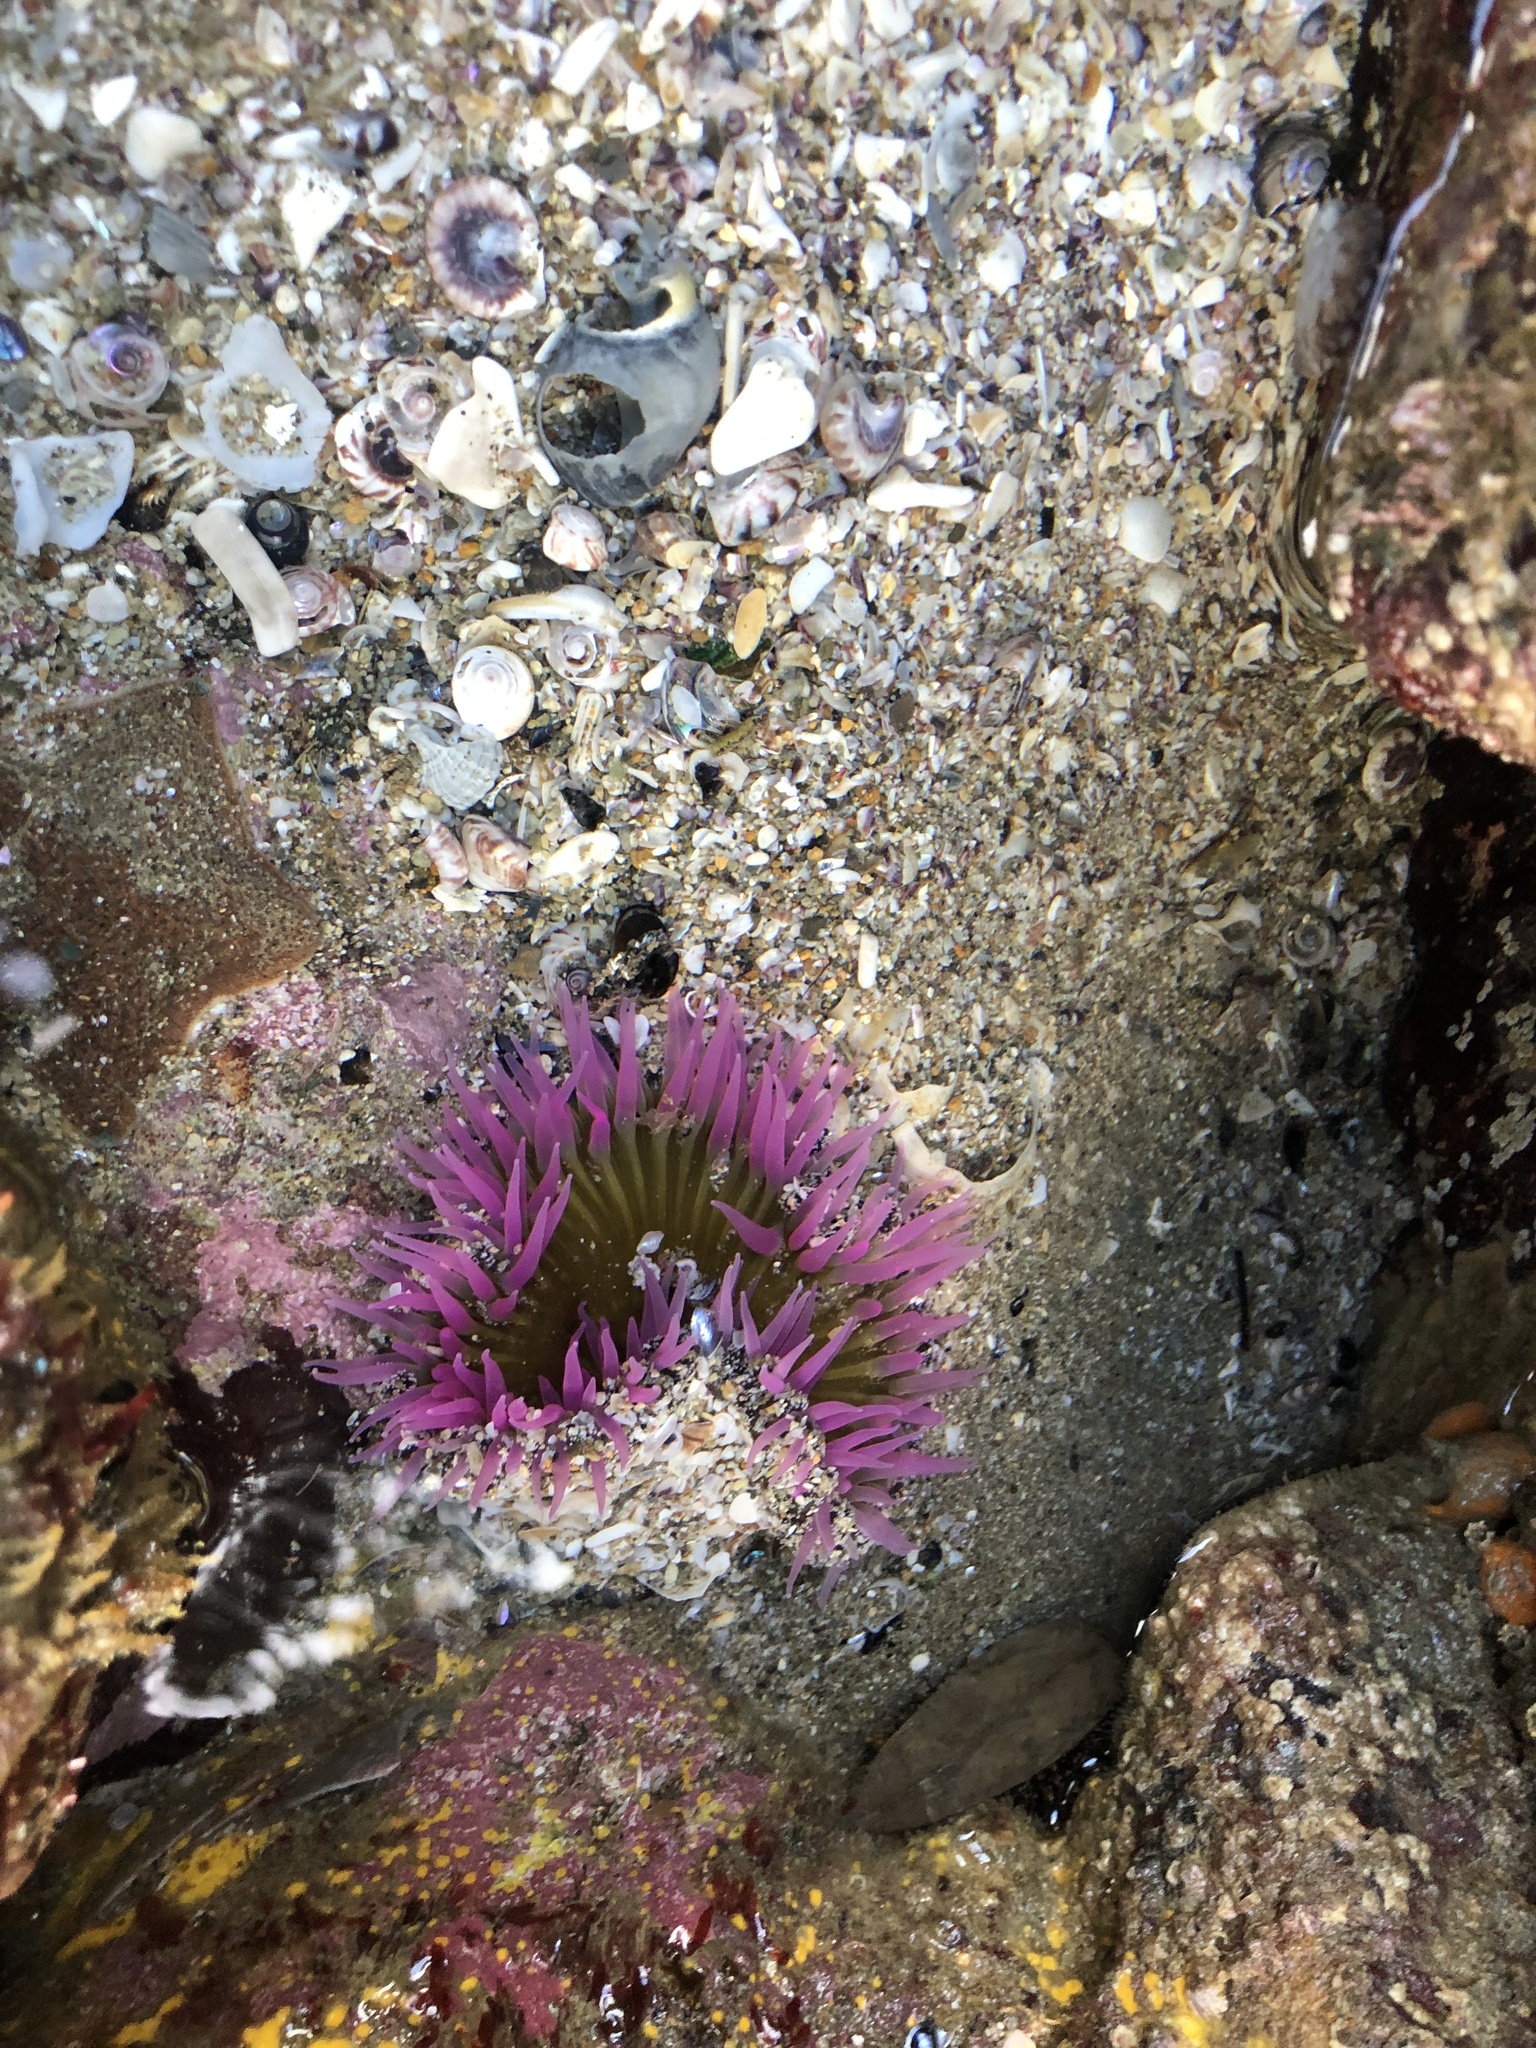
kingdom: Animalia
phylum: Cnidaria
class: Anthozoa
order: Actiniaria
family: Actiniidae
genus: Oulactis
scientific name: Oulactis magna
